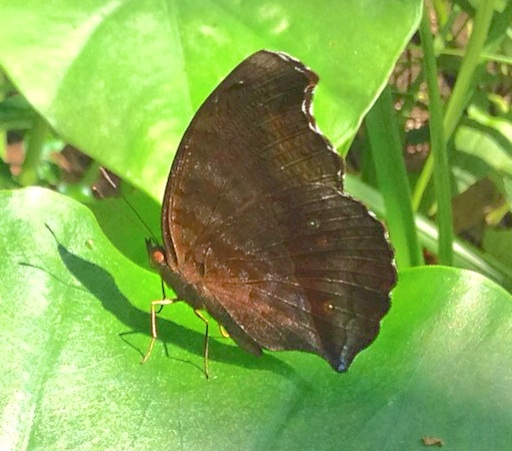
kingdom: Animalia
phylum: Arthropoda
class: Insecta
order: Lepidoptera
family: Nymphalidae
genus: Junonia
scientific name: Junonia iphita
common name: Chocolate pansy
